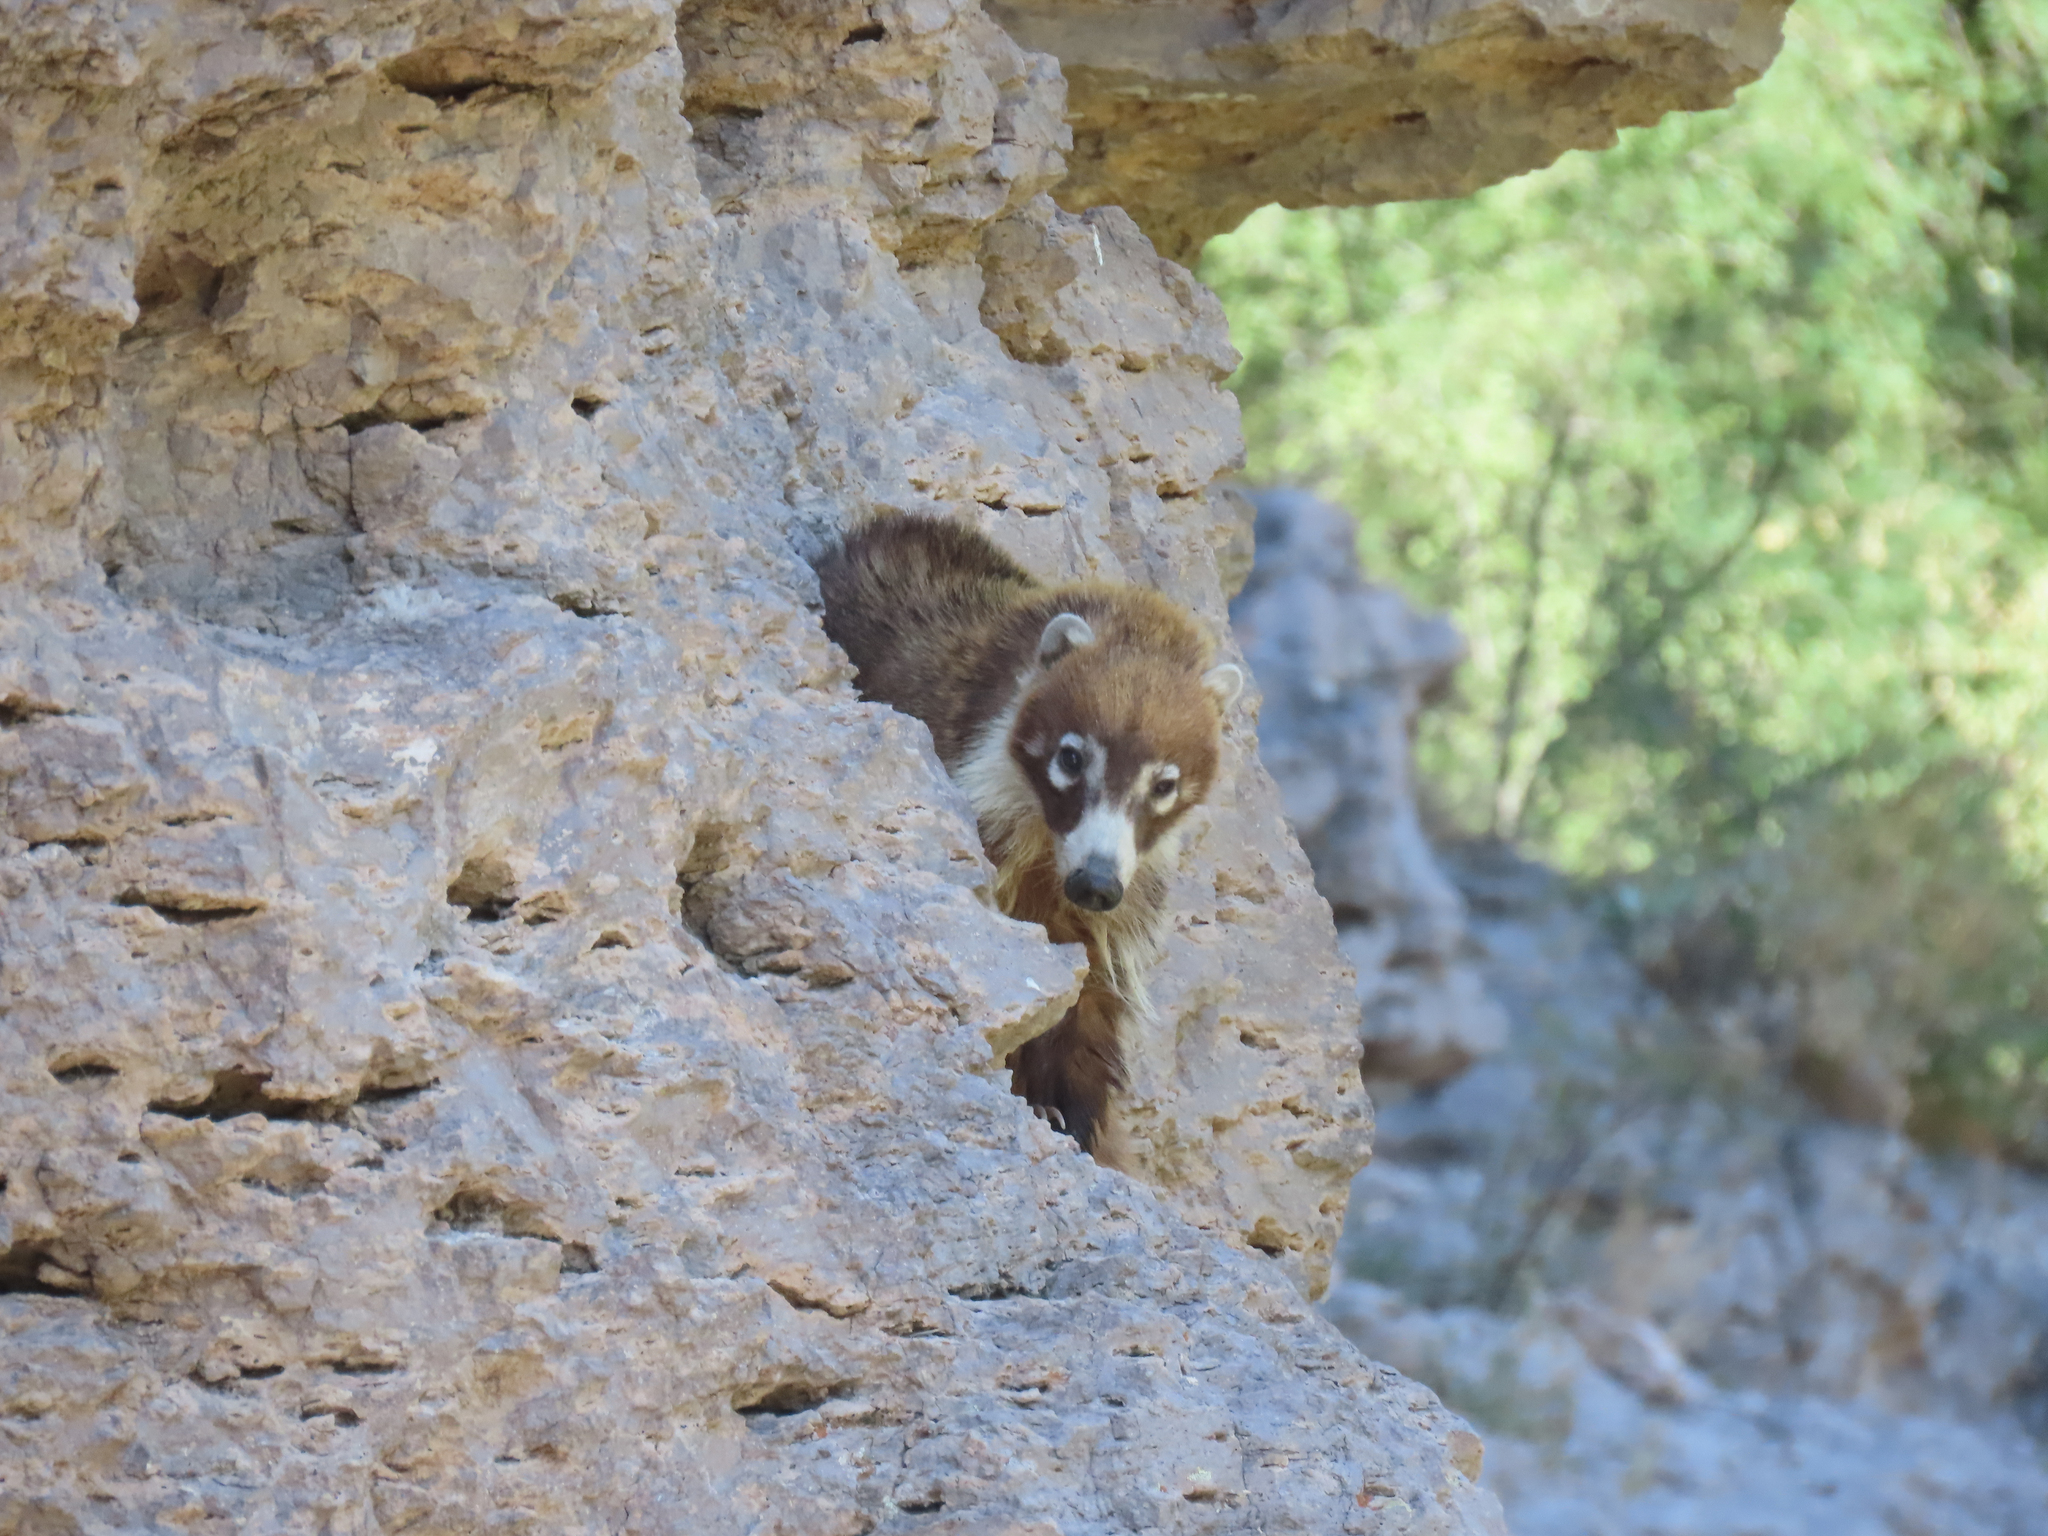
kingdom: Animalia
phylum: Chordata
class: Mammalia
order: Carnivora
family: Procyonidae
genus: Nasua
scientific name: Nasua narica
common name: White-nosed coati
